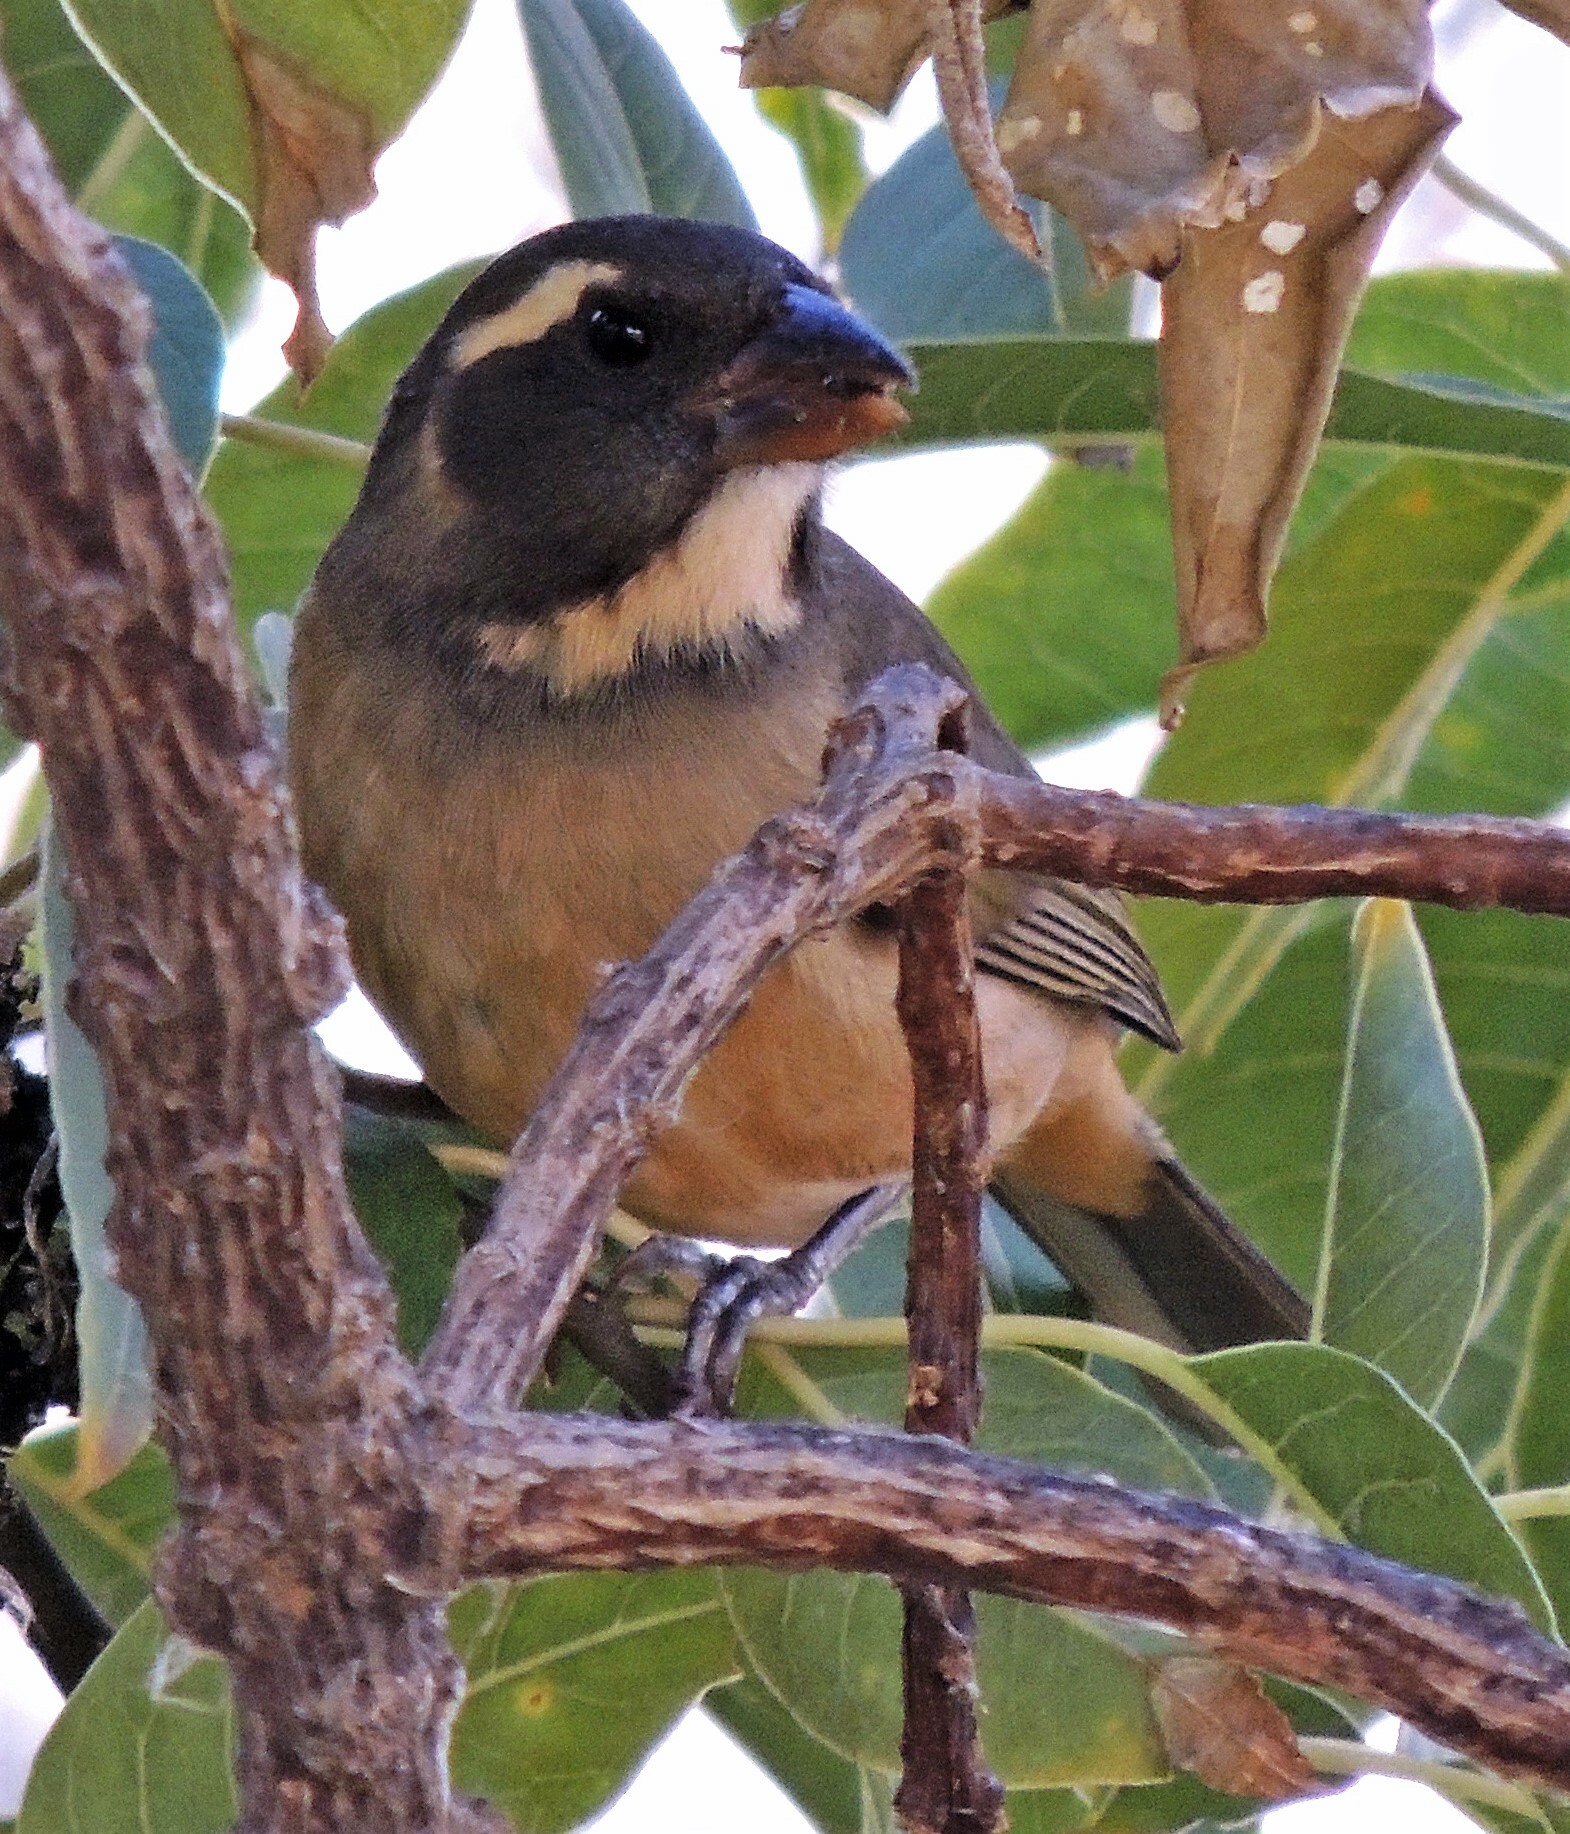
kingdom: Animalia
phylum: Chordata
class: Aves
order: Passeriformes
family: Thraupidae
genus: Saltator
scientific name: Saltator aurantiirostris
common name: Golden-billed saltator
